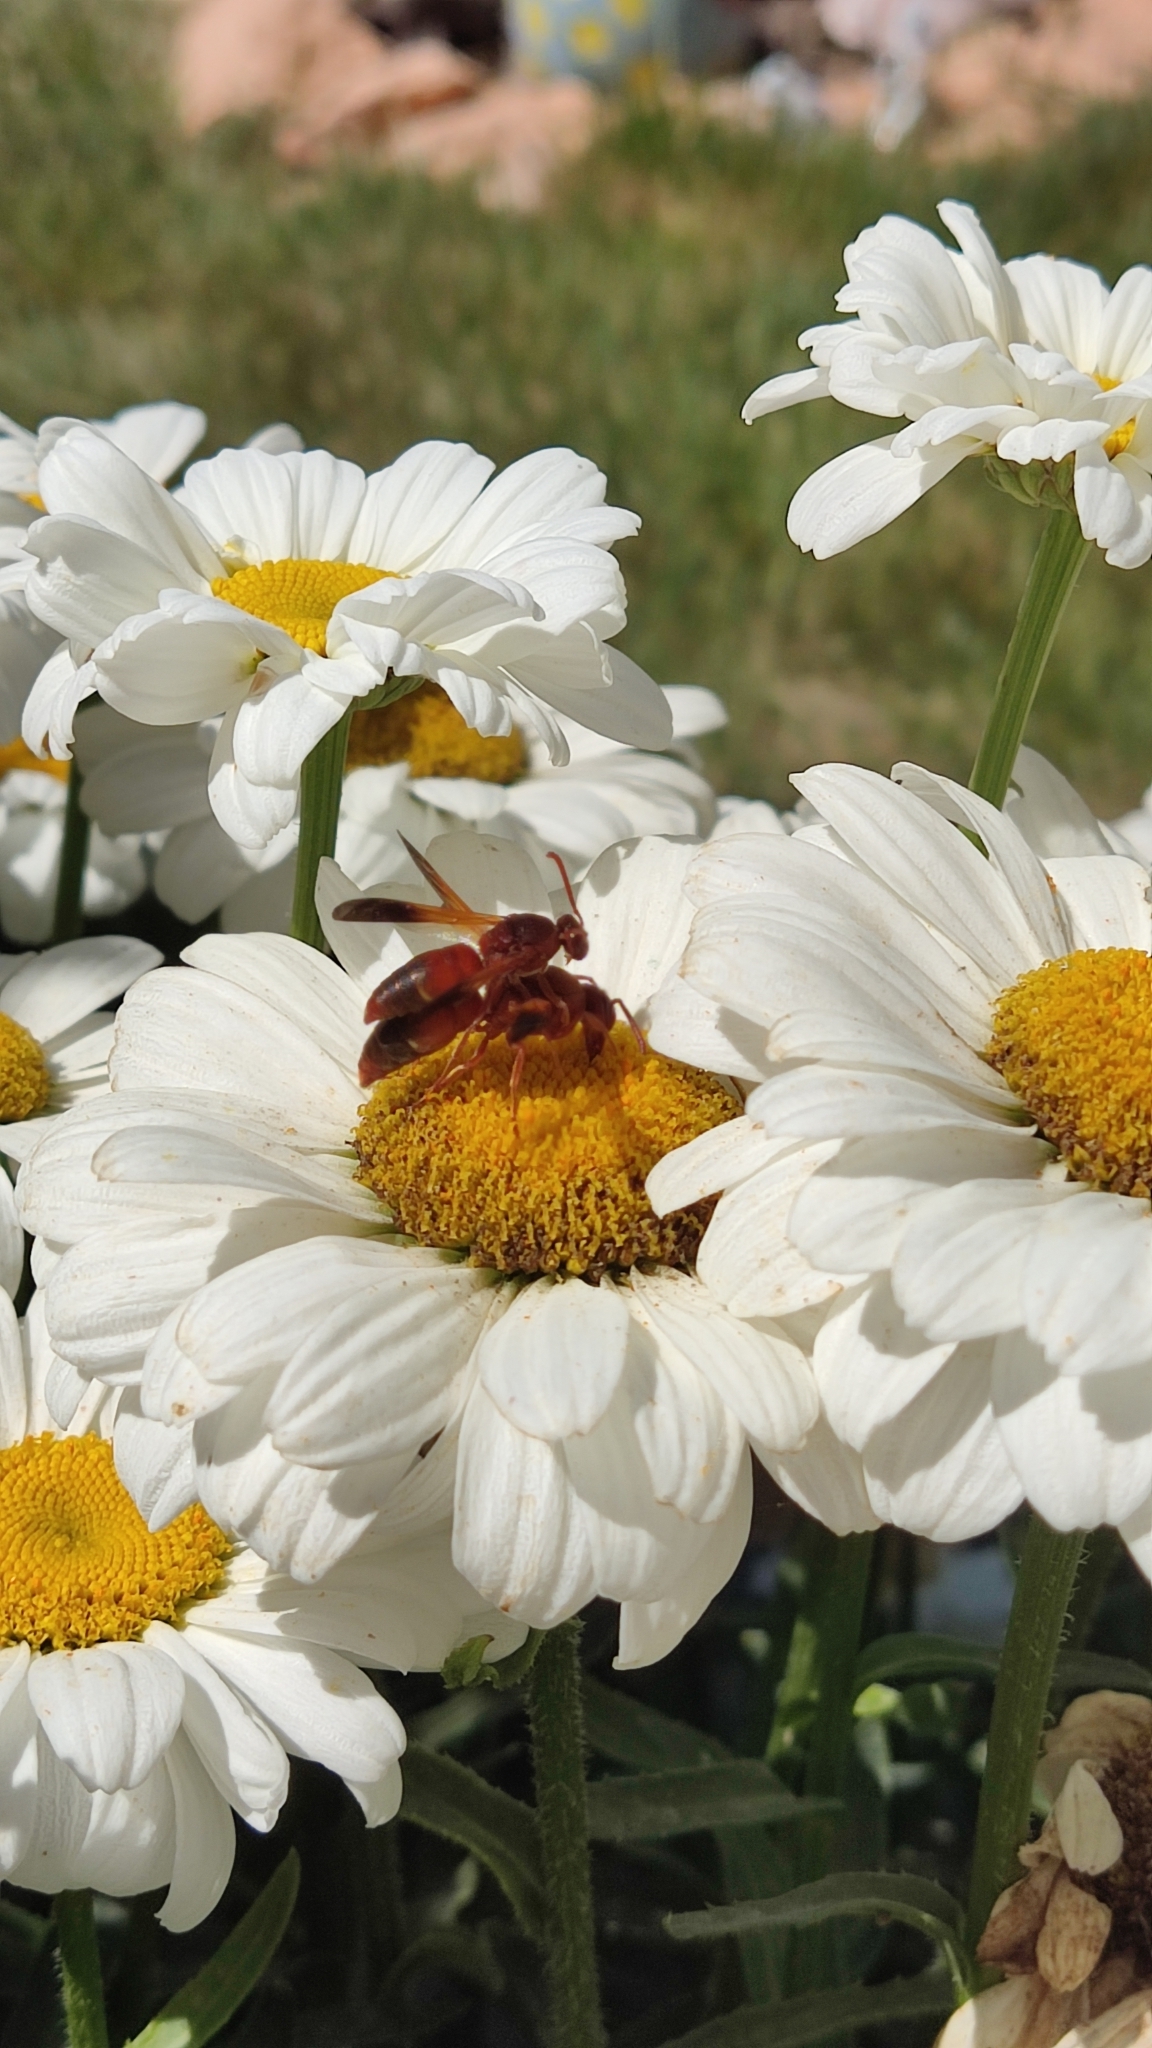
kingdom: Animalia
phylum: Arthropoda
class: Insecta
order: Hymenoptera
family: Eumenidae
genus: Rhynchium
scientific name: Rhynchium oculatum
